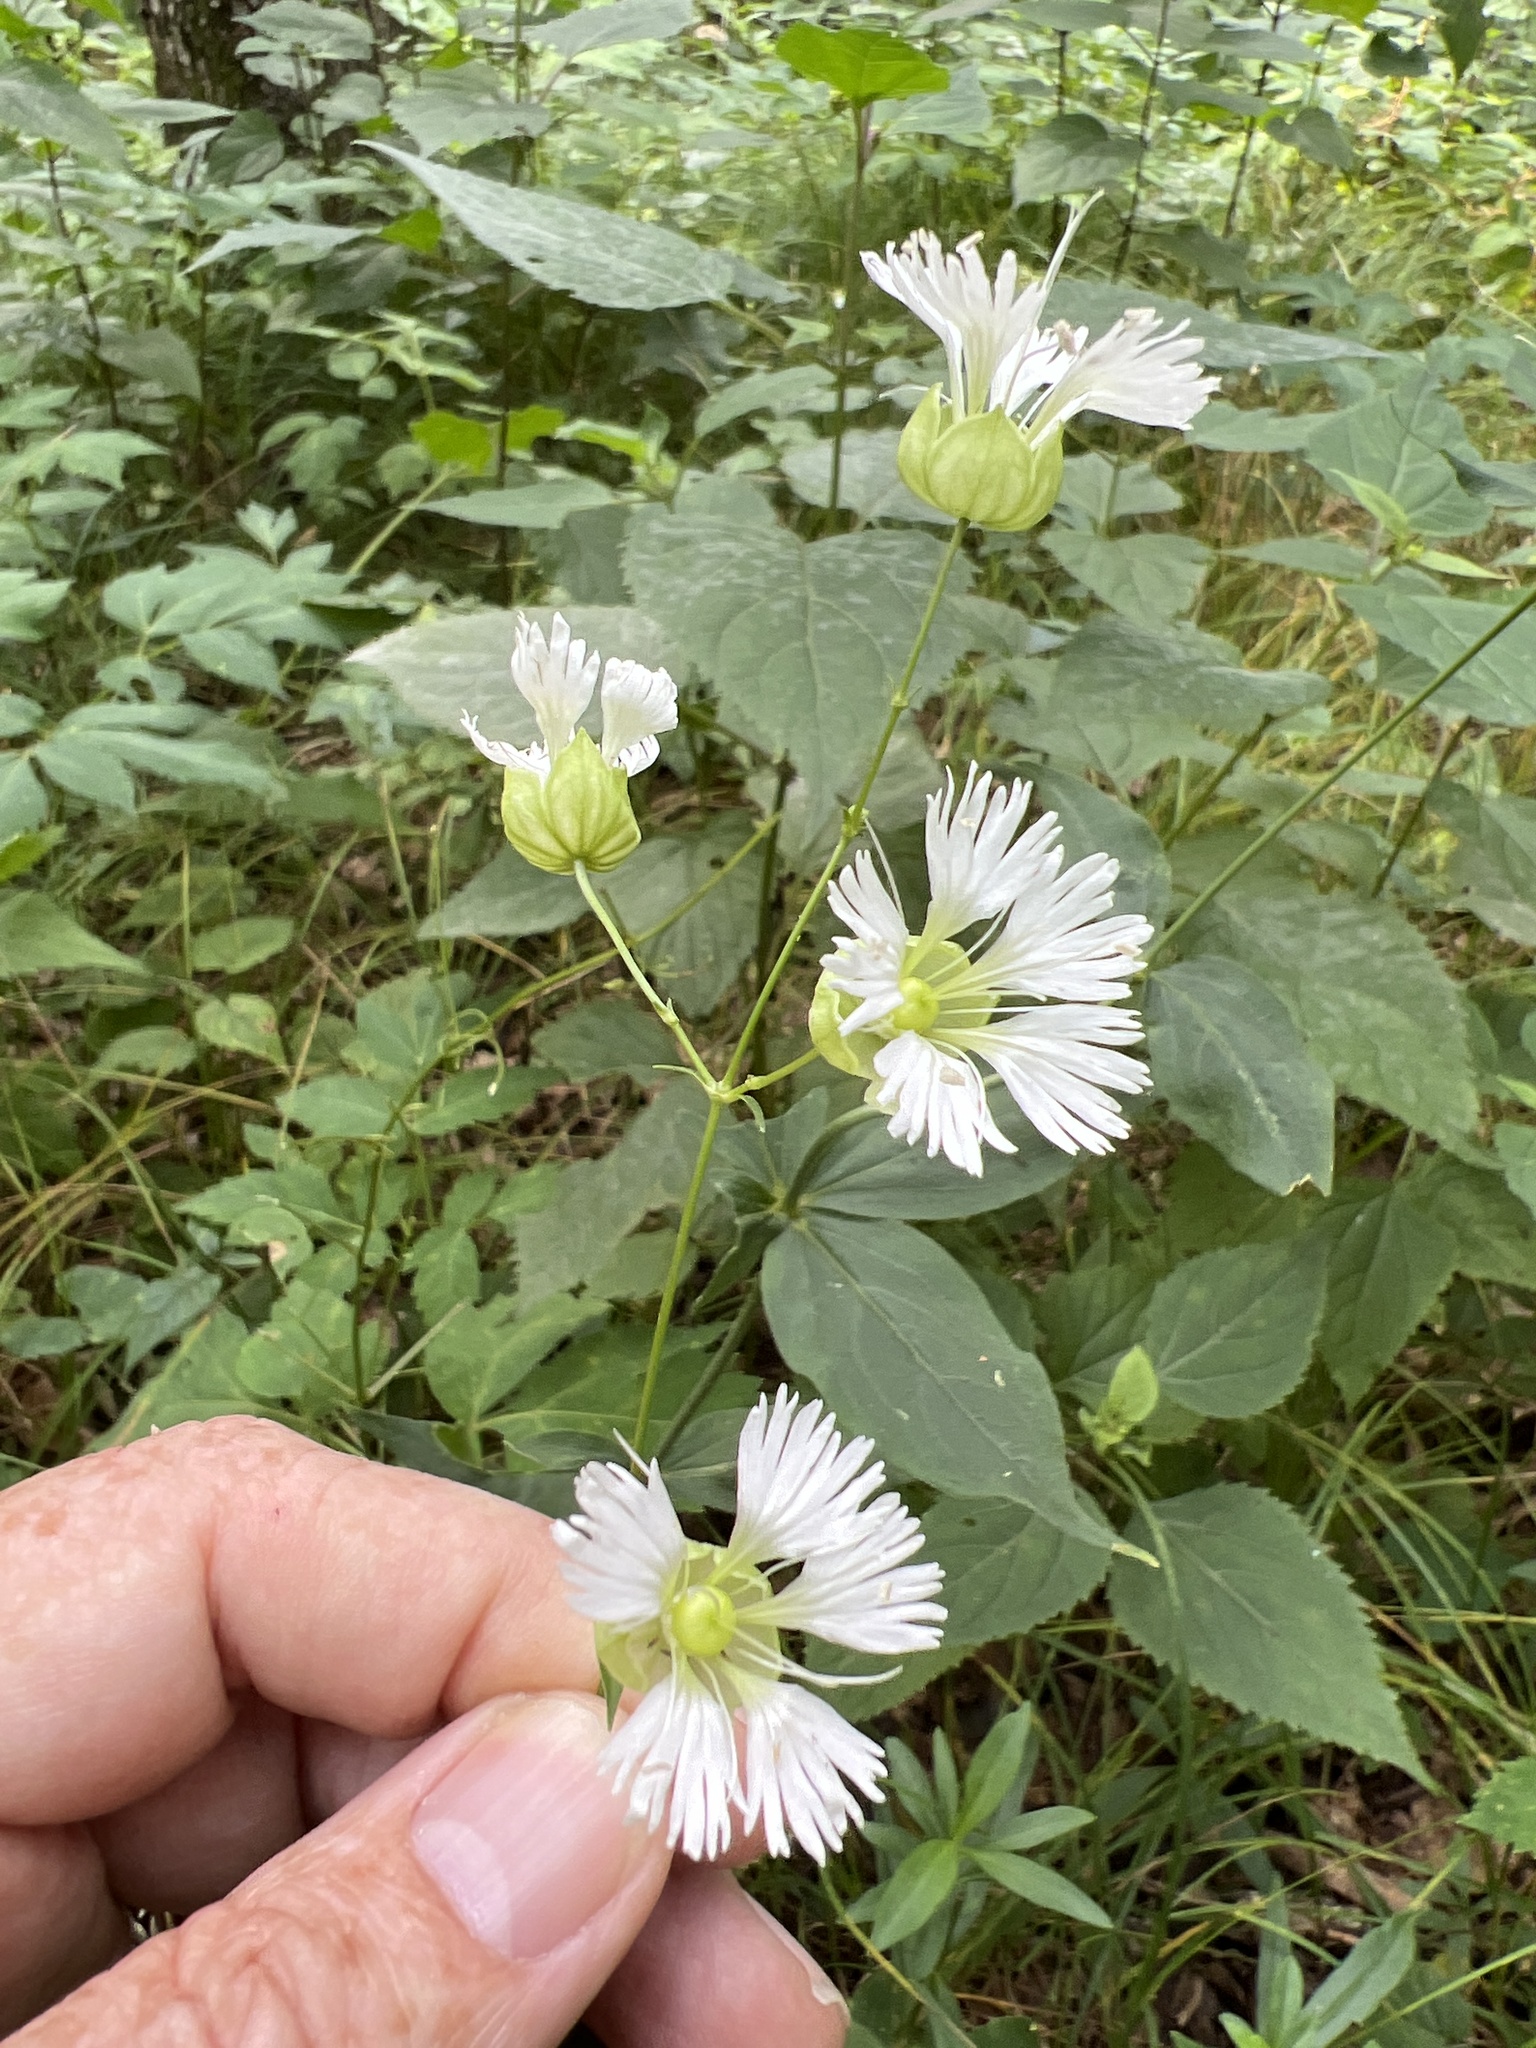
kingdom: Plantae
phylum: Tracheophyta
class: Magnoliopsida
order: Caryophyllales
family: Caryophyllaceae
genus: Silene
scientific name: Silene stellata
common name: Starry campion
